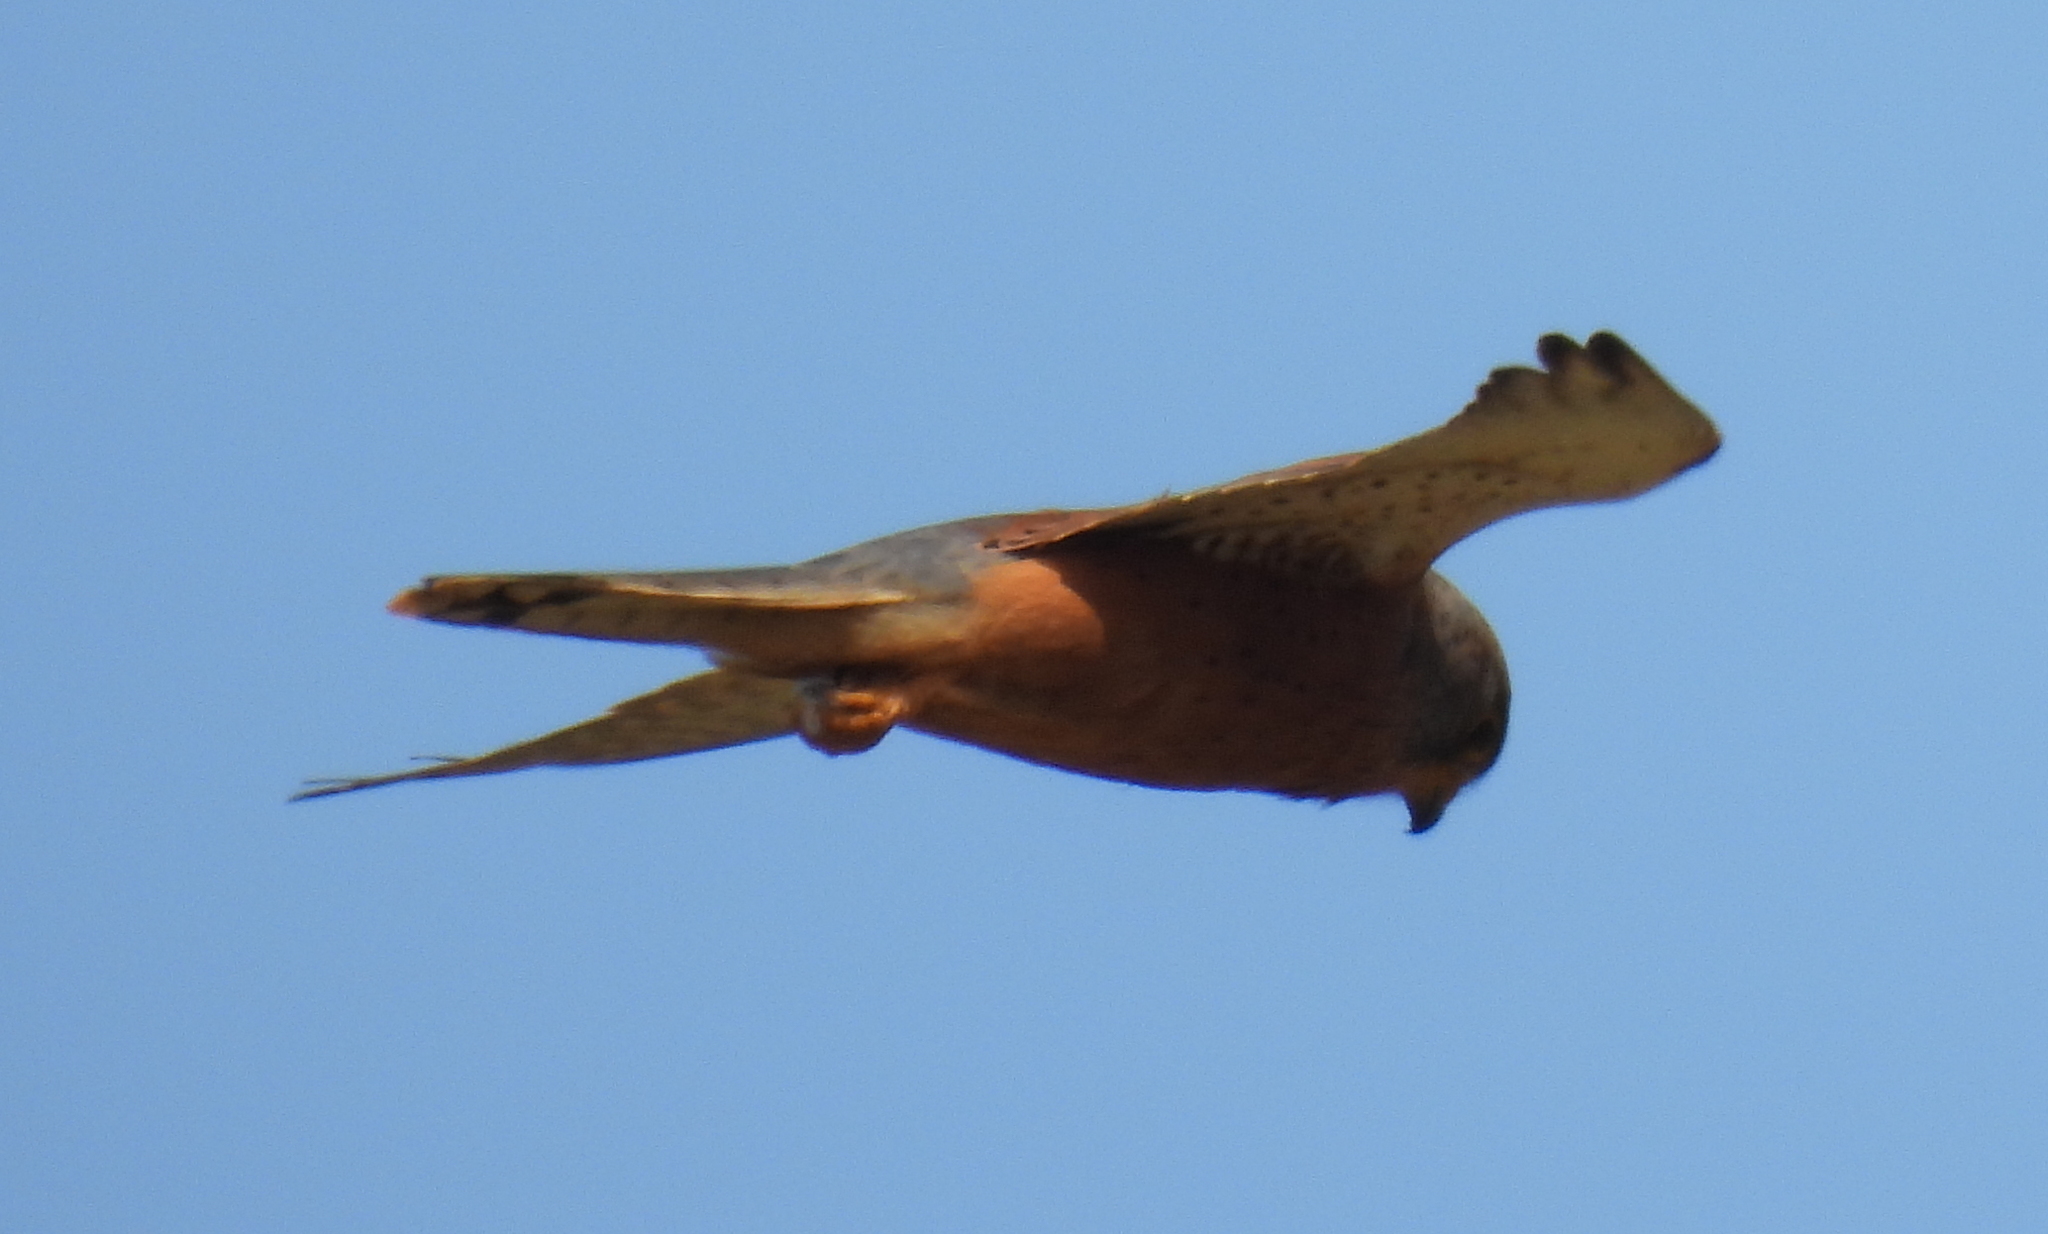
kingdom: Animalia
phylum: Chordata
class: Aves
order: Falconiformes
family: Falconidae
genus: Falco
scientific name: Falco rupicolus
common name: Rock kestrel
